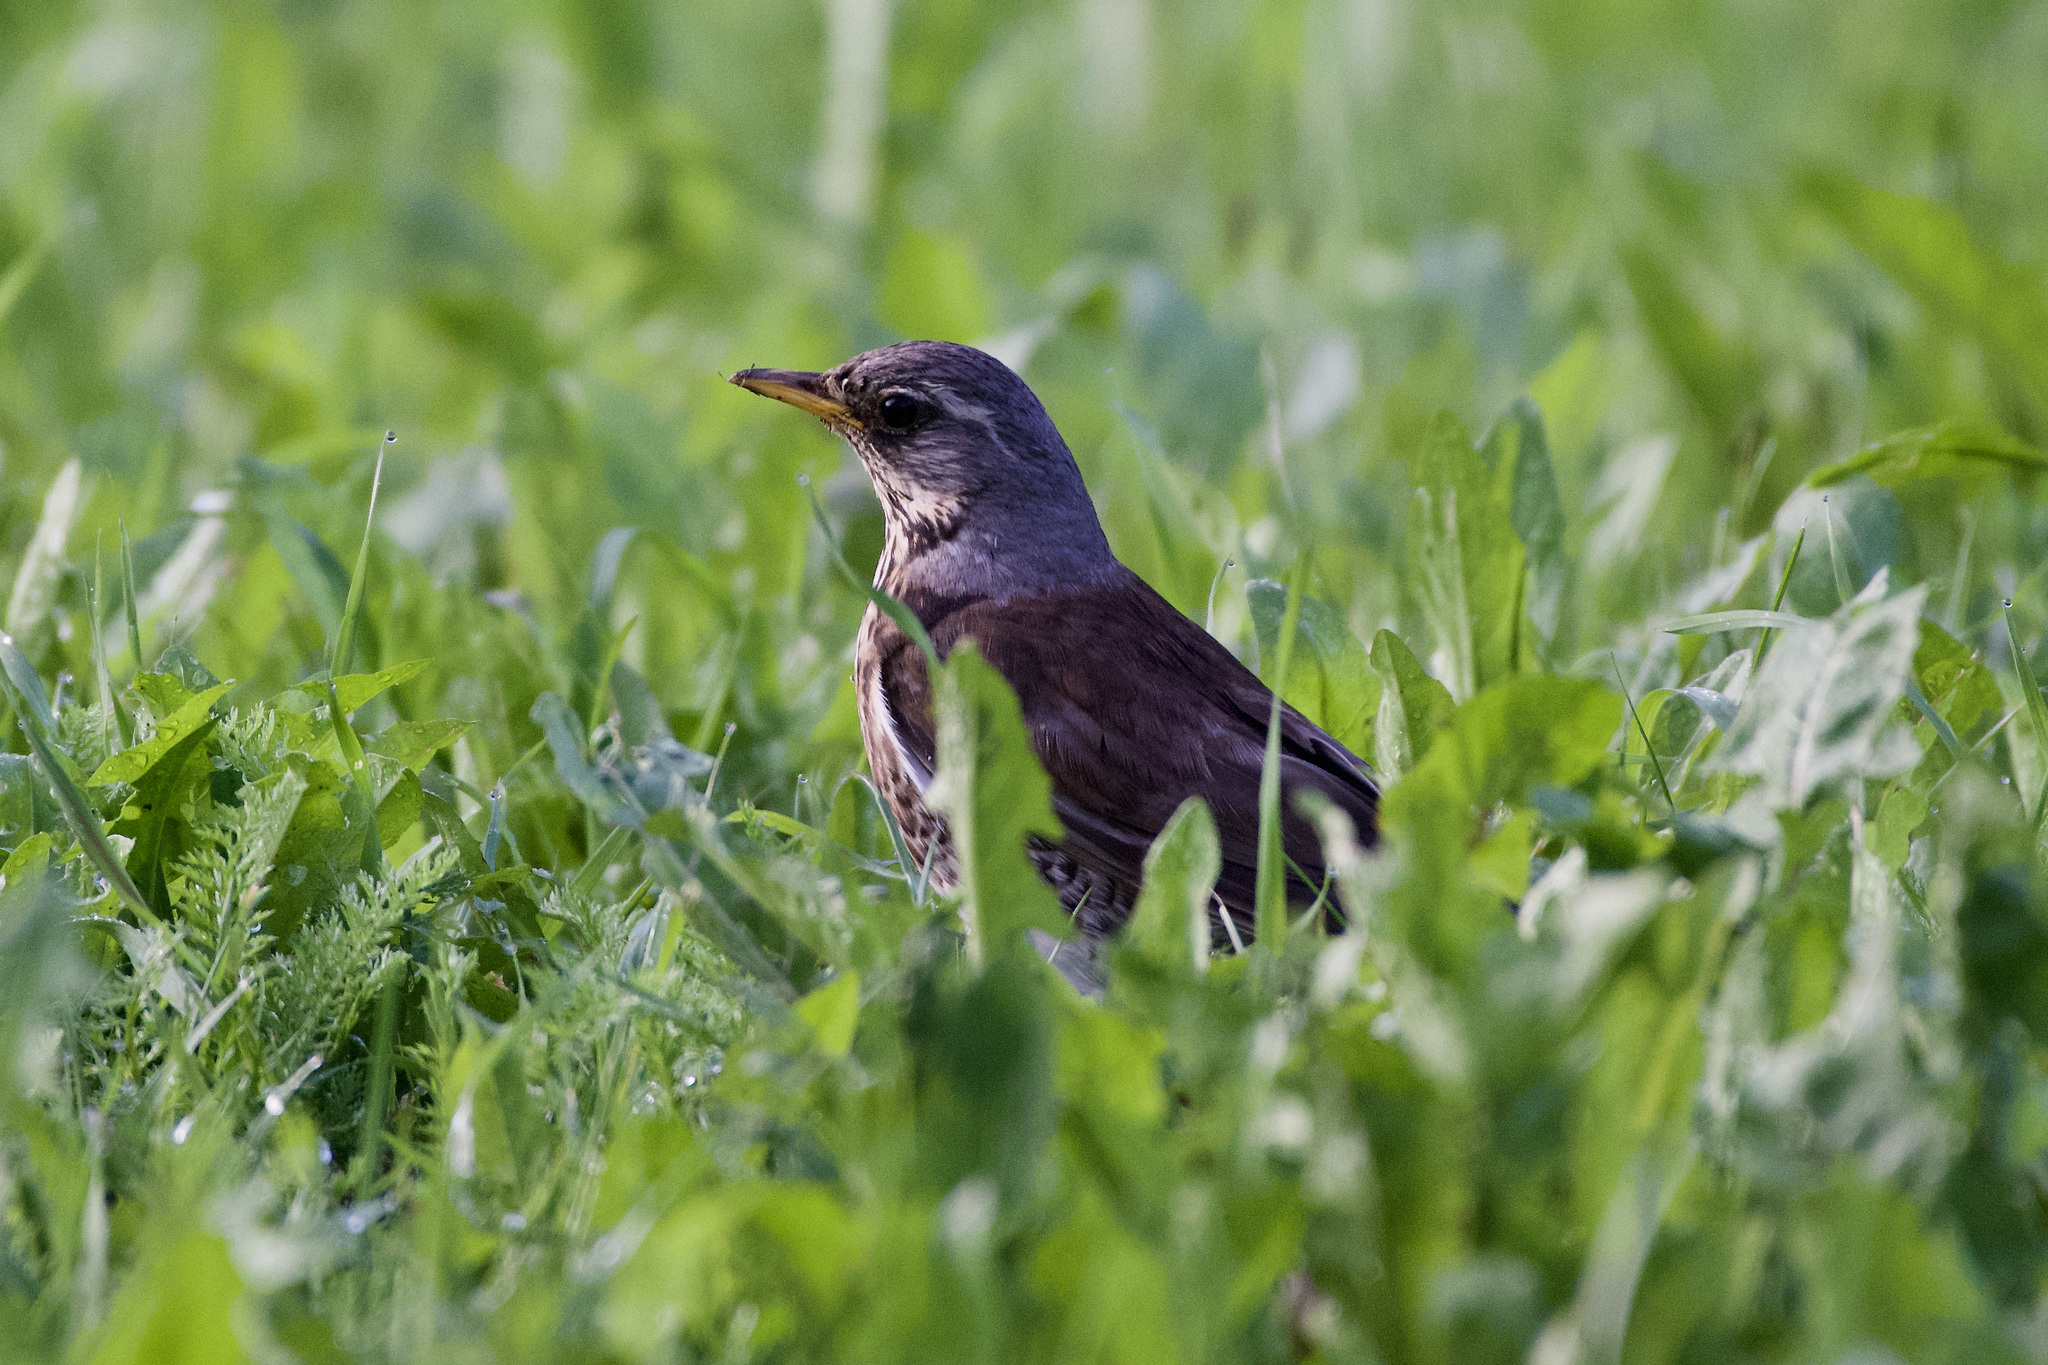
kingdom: Animalia
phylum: Chordata
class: Aves
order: Passeriformes
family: Turdidae
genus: Turdus
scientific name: Turdus pilaris
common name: Fieldfare
